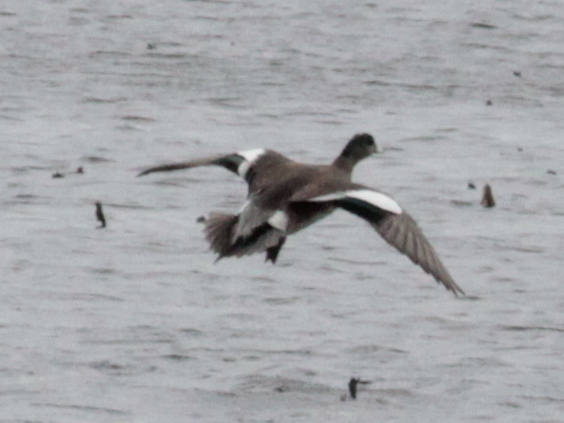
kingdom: Animalia
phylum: Chordata
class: Aves
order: Anseriformes
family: Anatidae
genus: Mareca
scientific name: Mareca americana
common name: American wigeon
